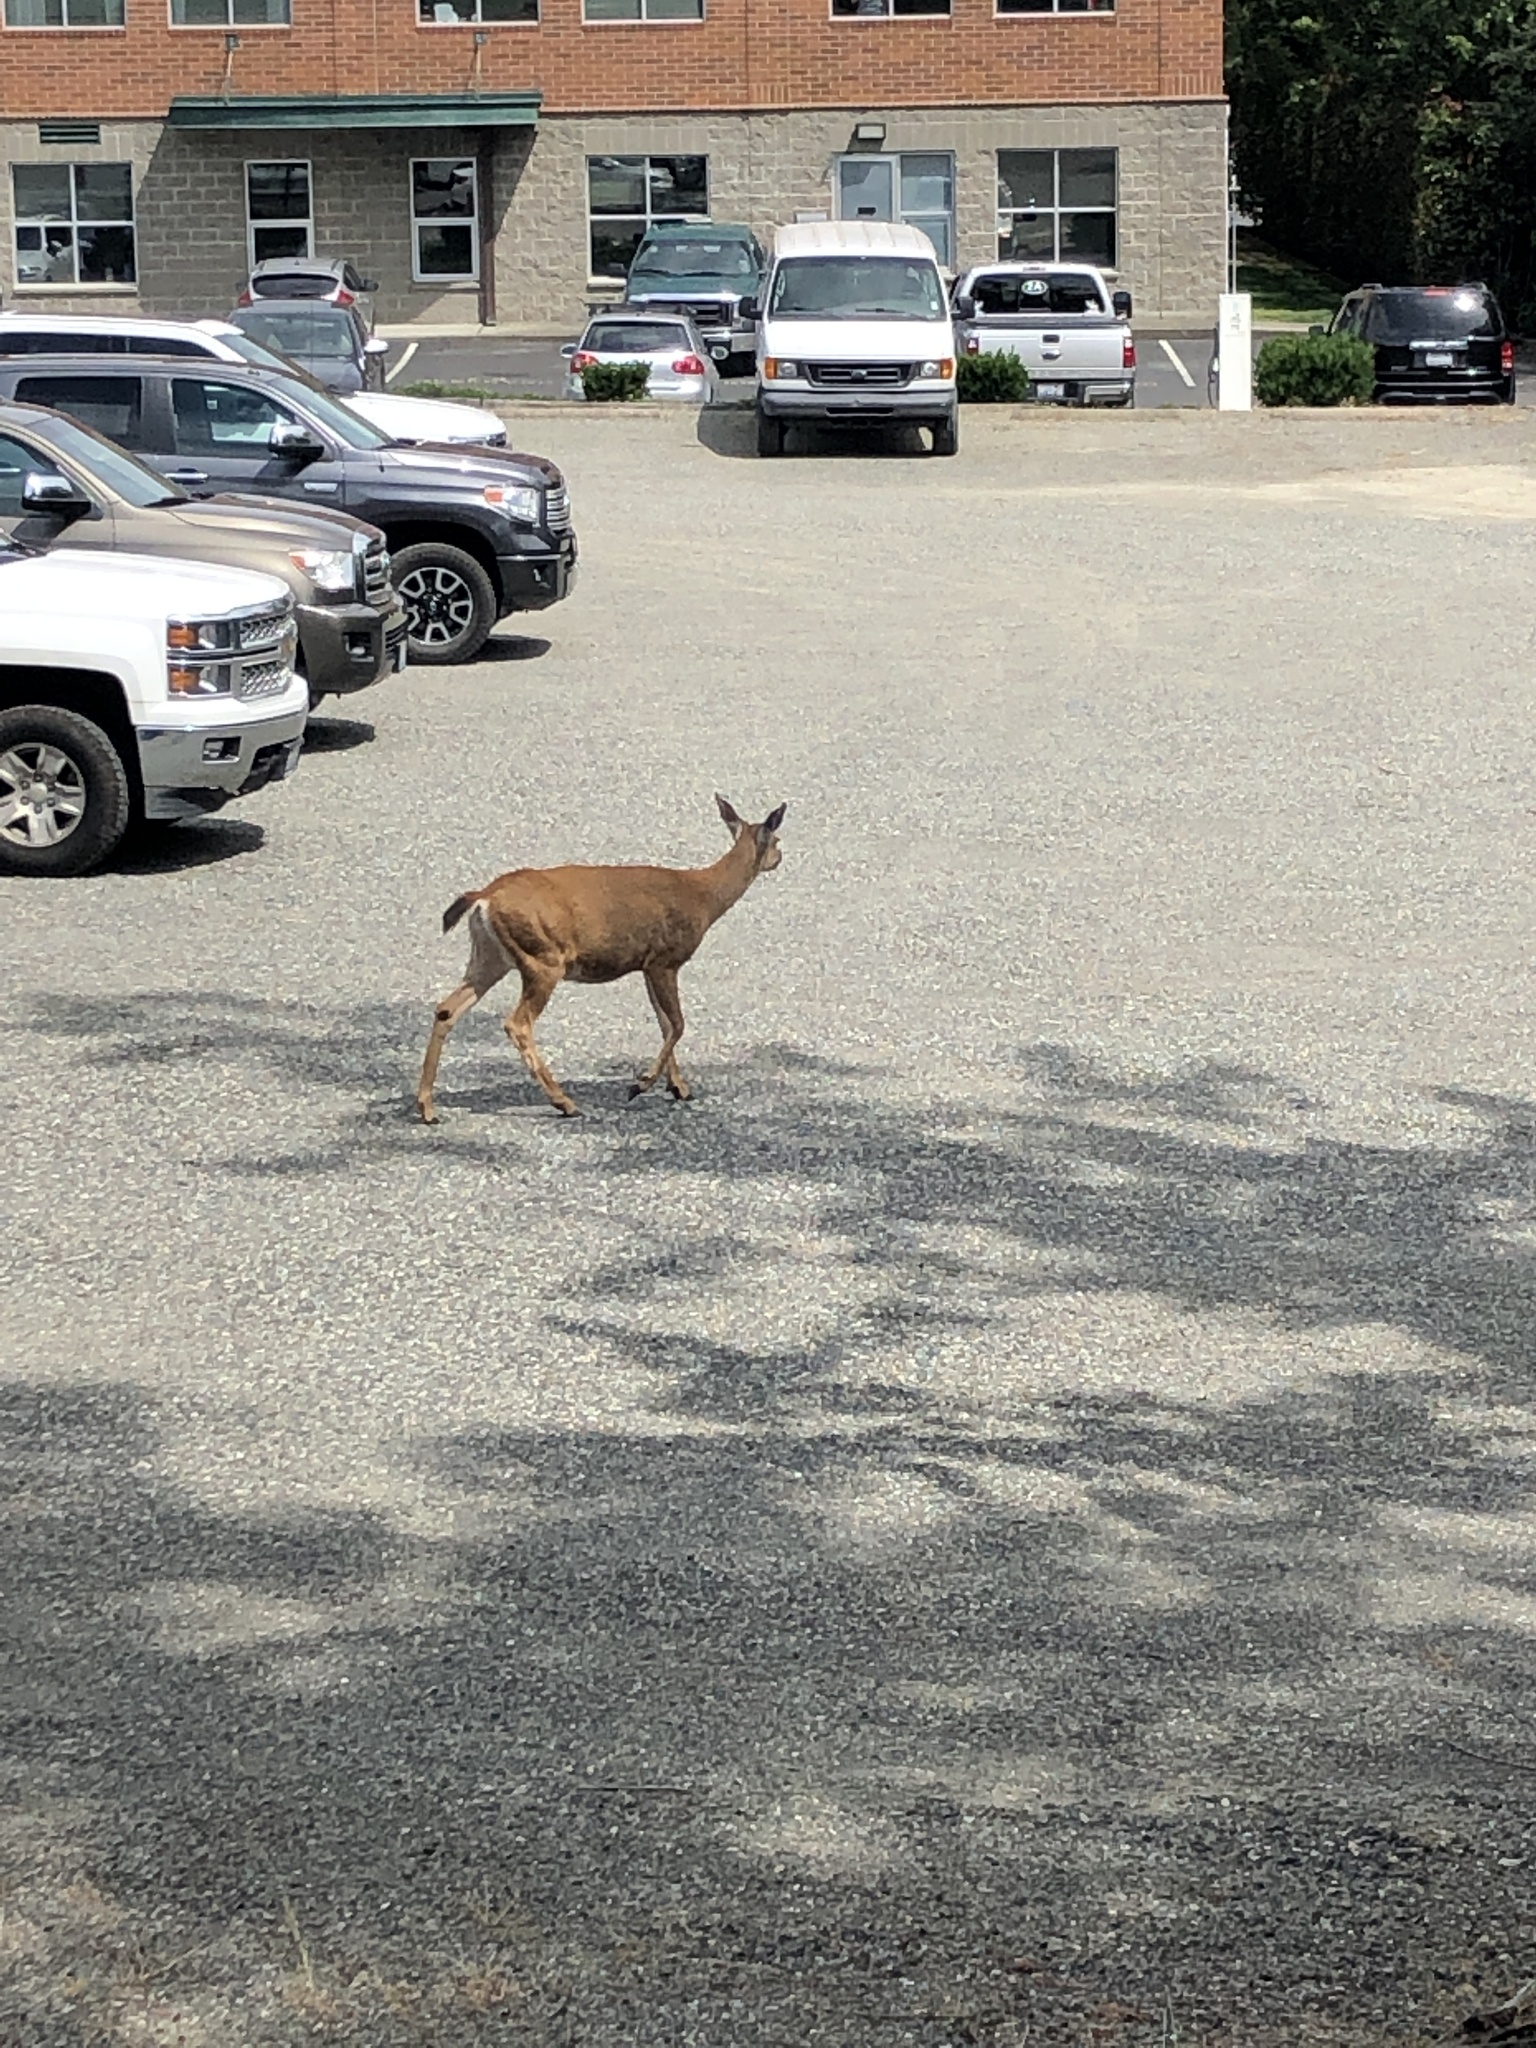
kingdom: Animalia
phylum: Chordata
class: Mammalia
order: Artiodactyla
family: Cervidae
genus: Odocoileus
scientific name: Odocoileus hemionus
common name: Mule deer
